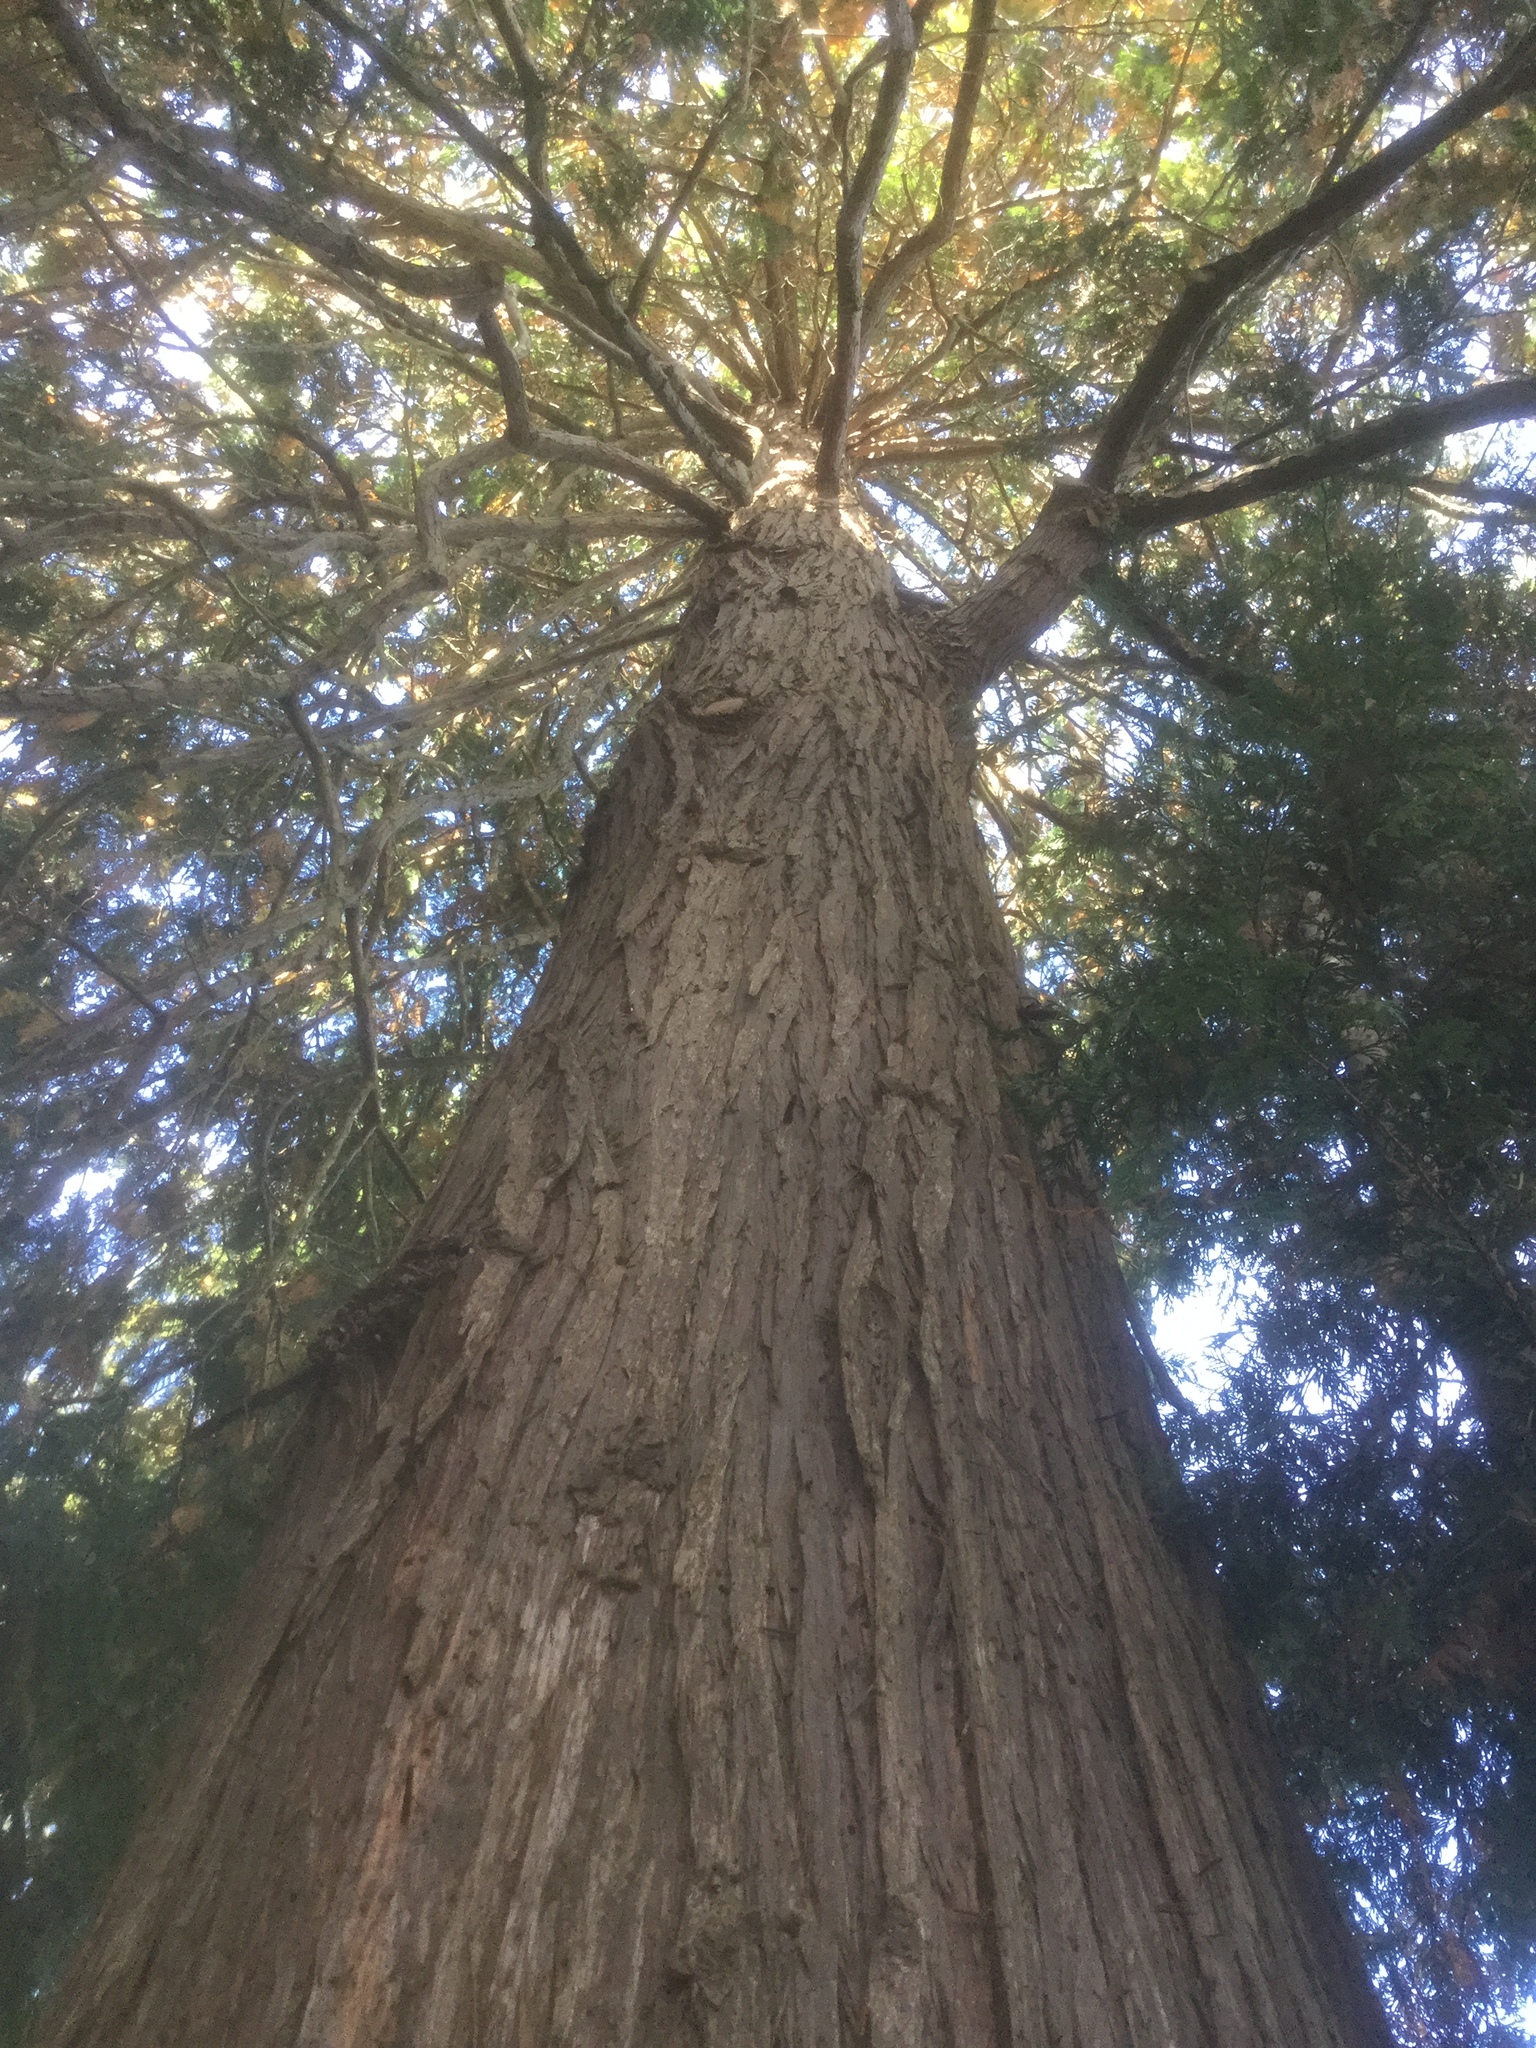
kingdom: Plantae
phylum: Tracheophyta
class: Pinopsida
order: Pinales
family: Cupressaceae
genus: Thuja
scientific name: Thuja plicata
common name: Western red-cedar
